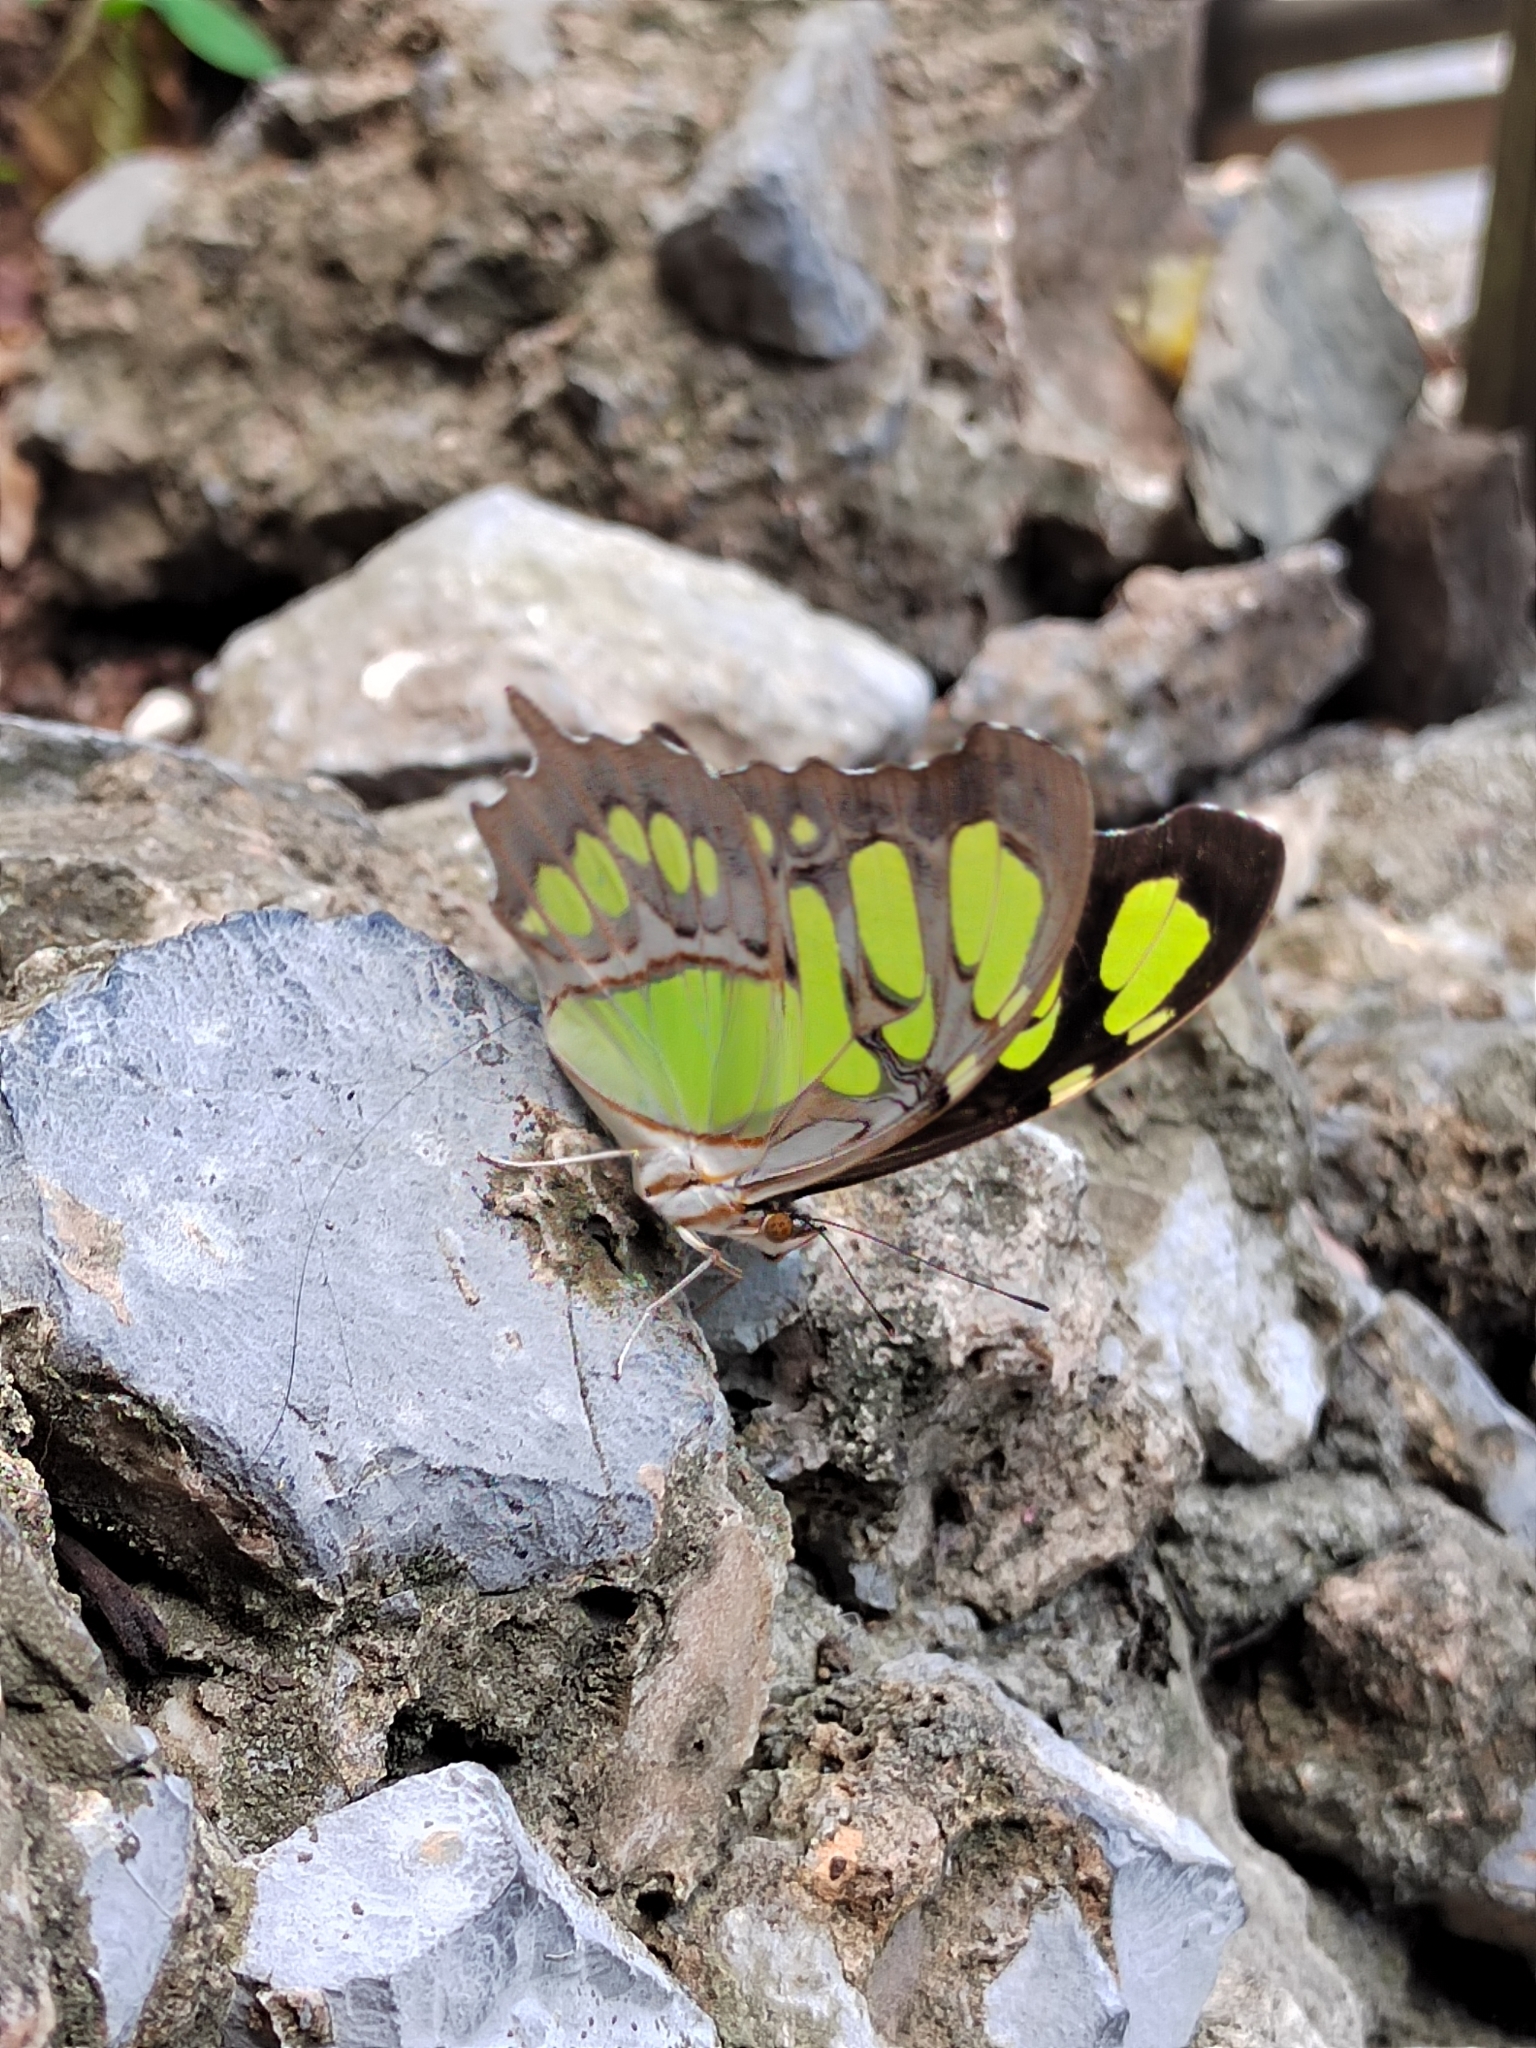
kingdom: Animalia
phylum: Arthropoda
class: Insecta
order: Lepidoptera
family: Nymphalidae
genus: Siproeta
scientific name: Siproeta stelenes
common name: Malachite
